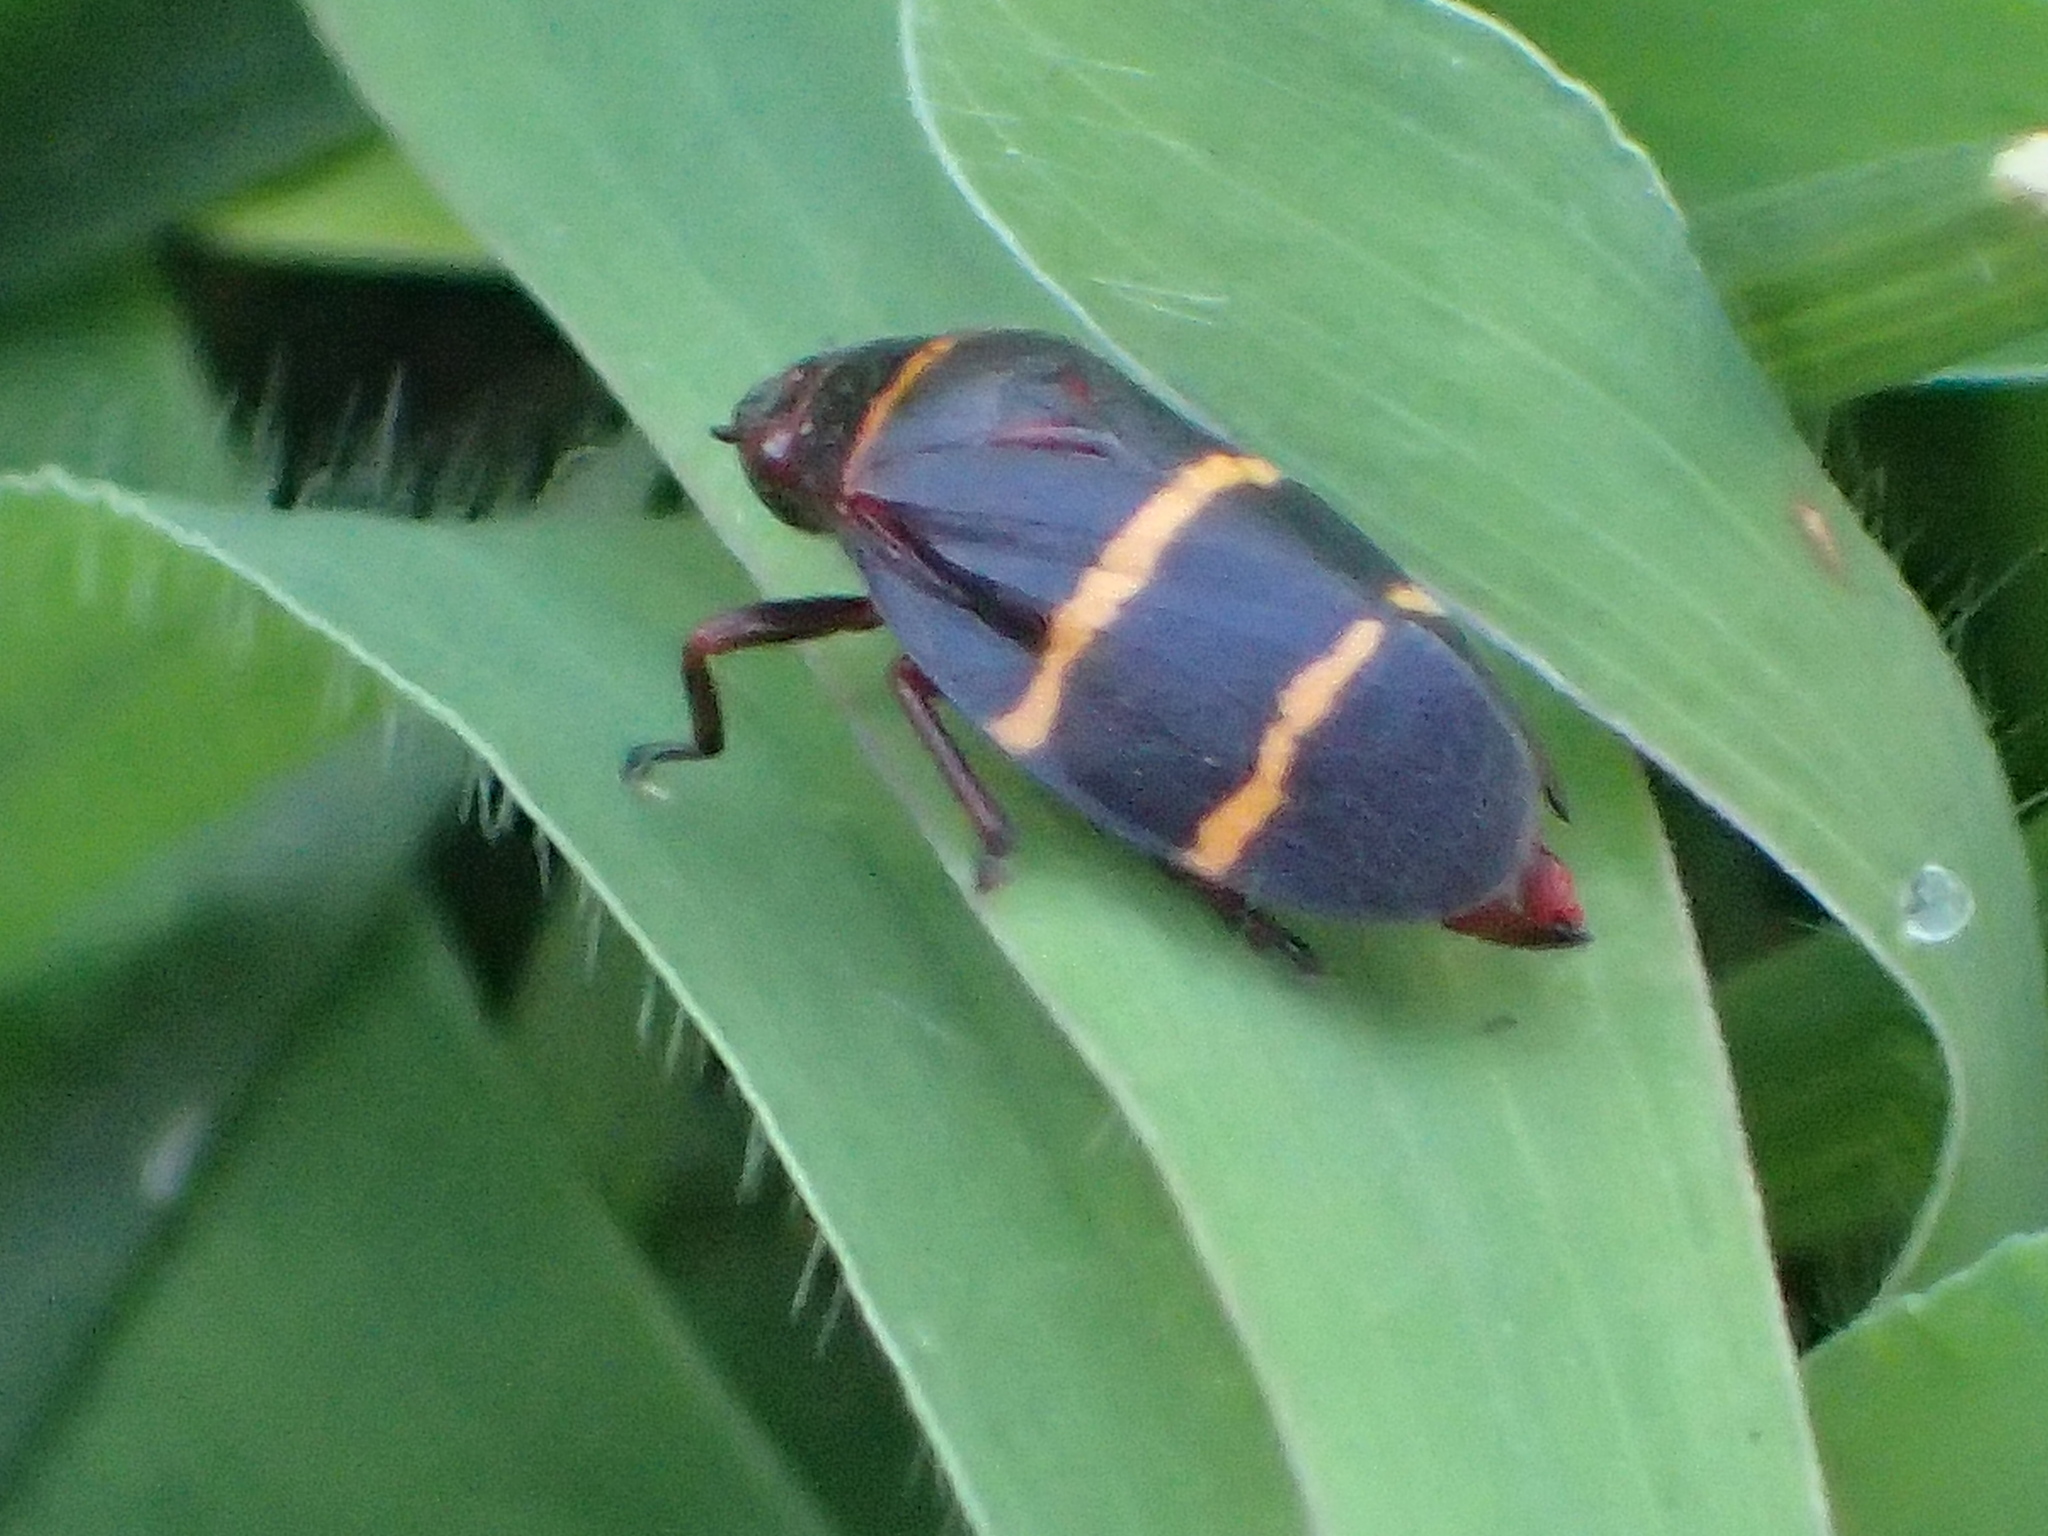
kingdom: Animalia
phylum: Arthropoda
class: Insecta
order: Hemiptera
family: Cercopidae
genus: Prosapia
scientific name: Prosapia bicincta
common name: Twolined spittlebug
